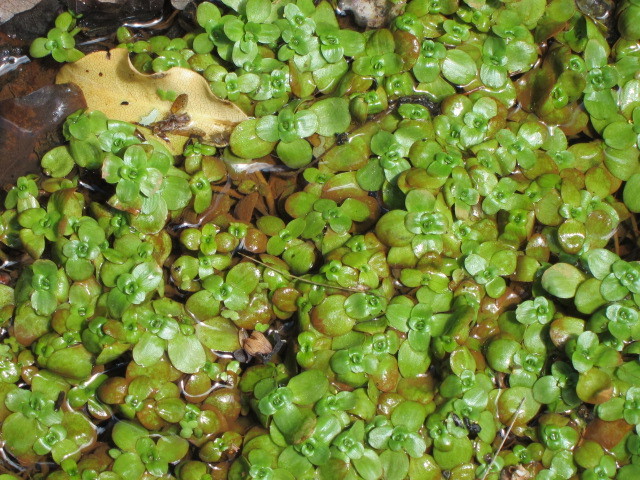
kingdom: Plantae
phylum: Tracheophyta
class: Magnoliopsida
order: Lamiales
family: Plantaginaceae
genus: Callitriche
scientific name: Callitriche stagnalis
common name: Common water-starwort
